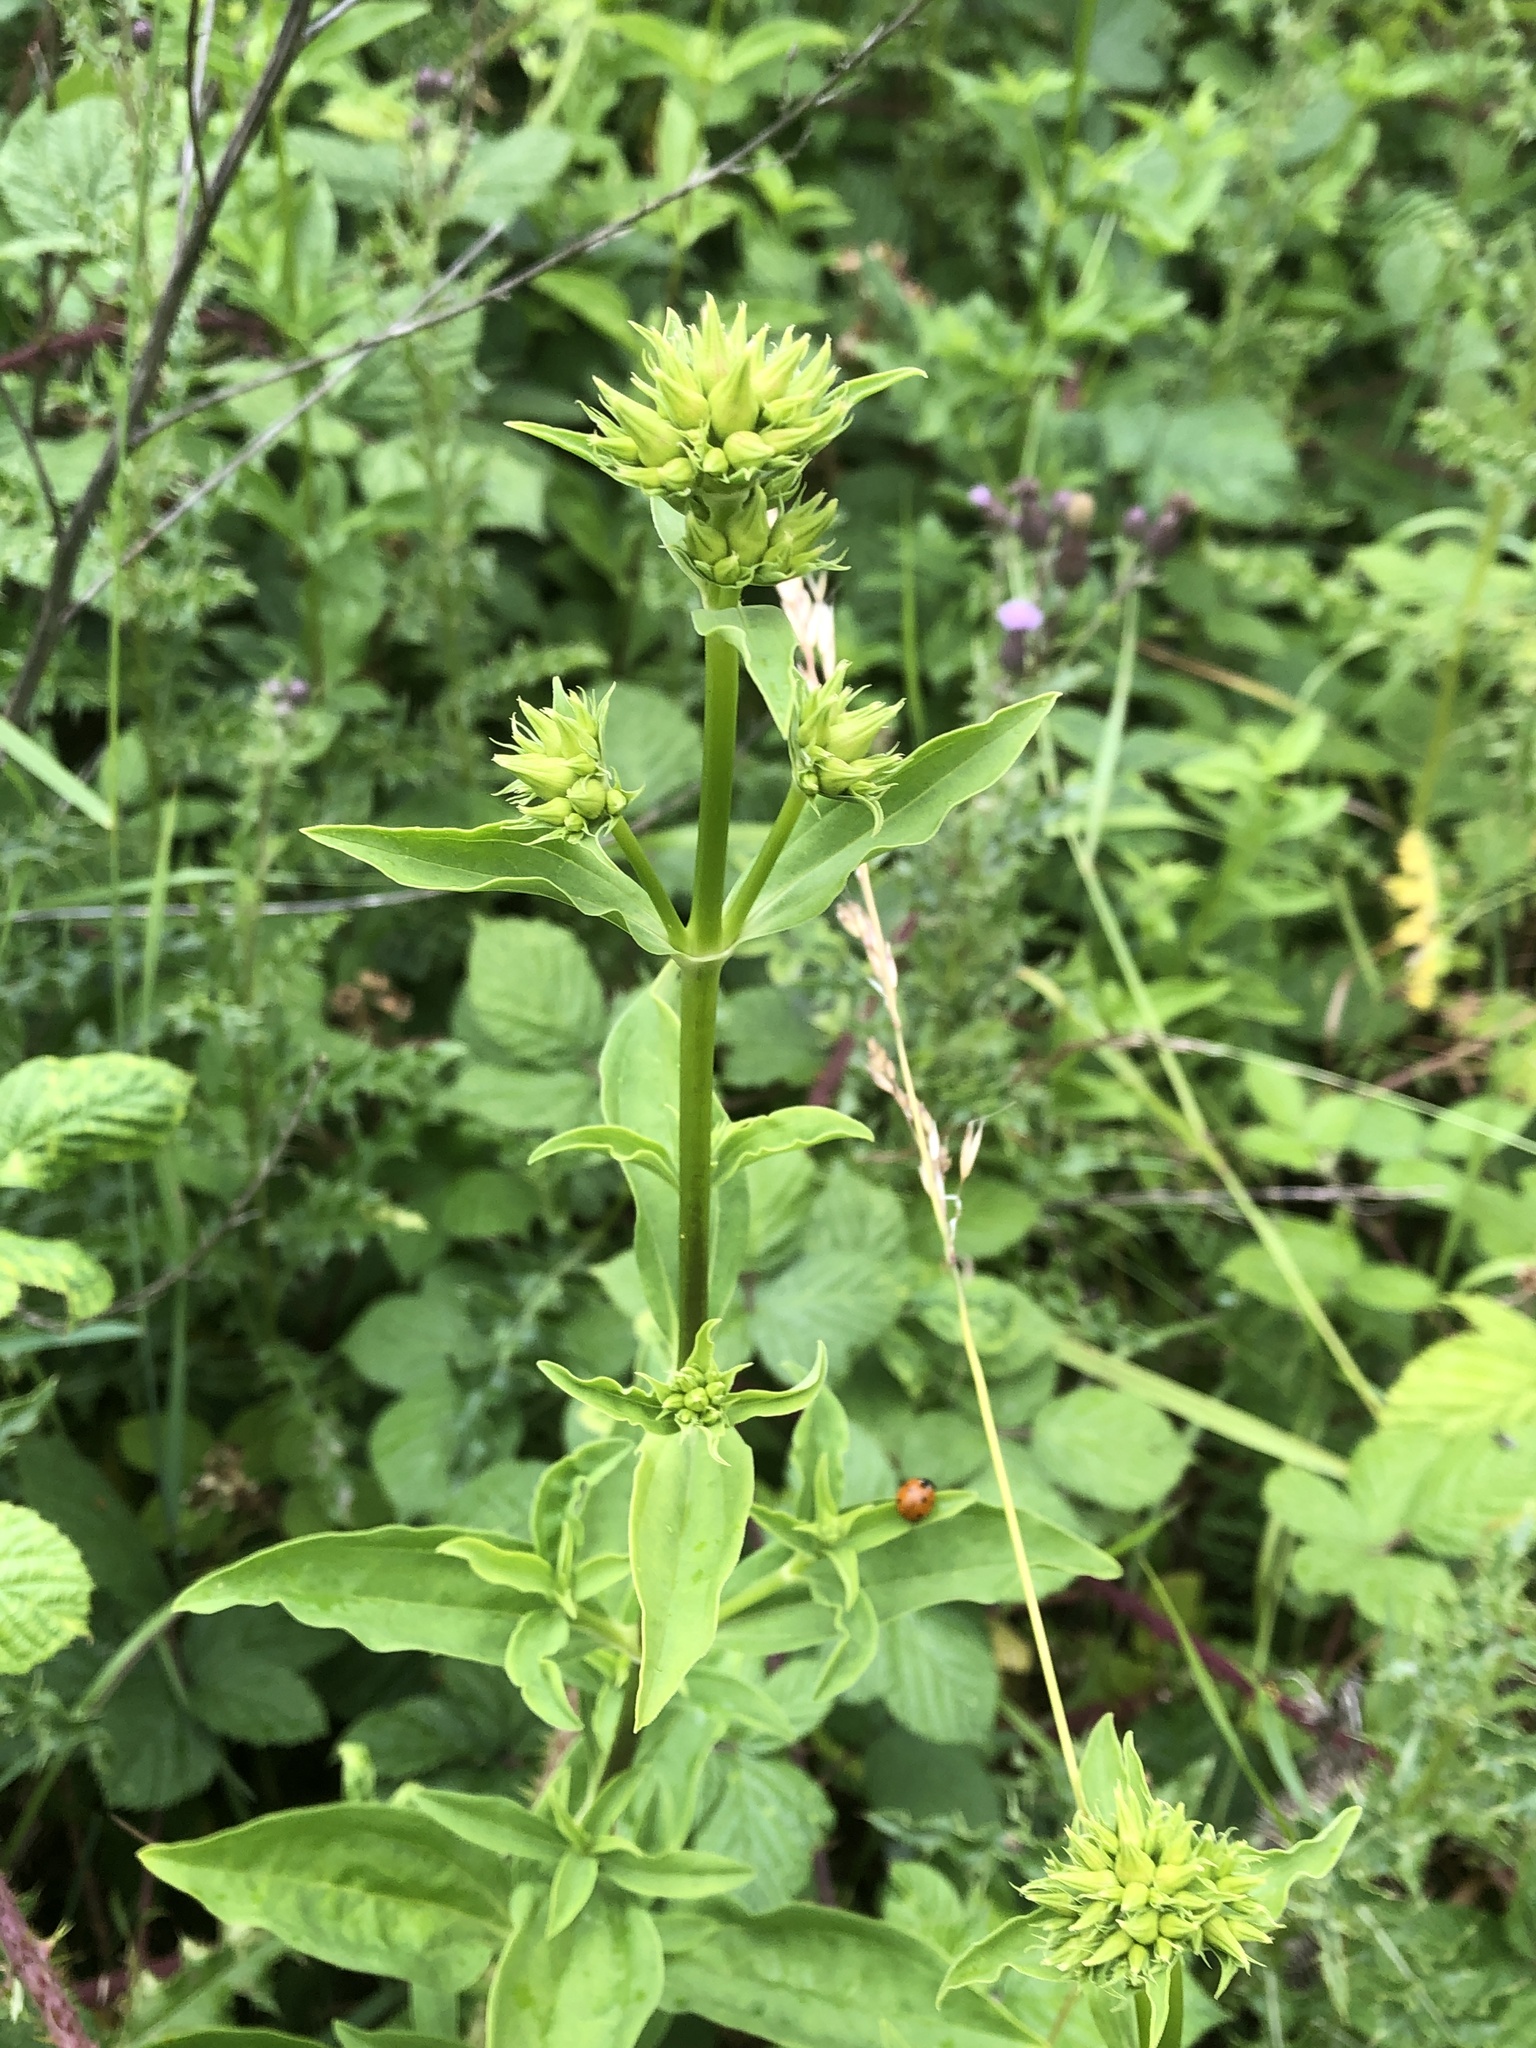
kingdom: Plantae
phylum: Tracheophyta
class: Magnoliopsida
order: Caryophyllales
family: Caryophyllaceae
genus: Saponaria
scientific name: Saponaria officinalis
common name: Soapwort
